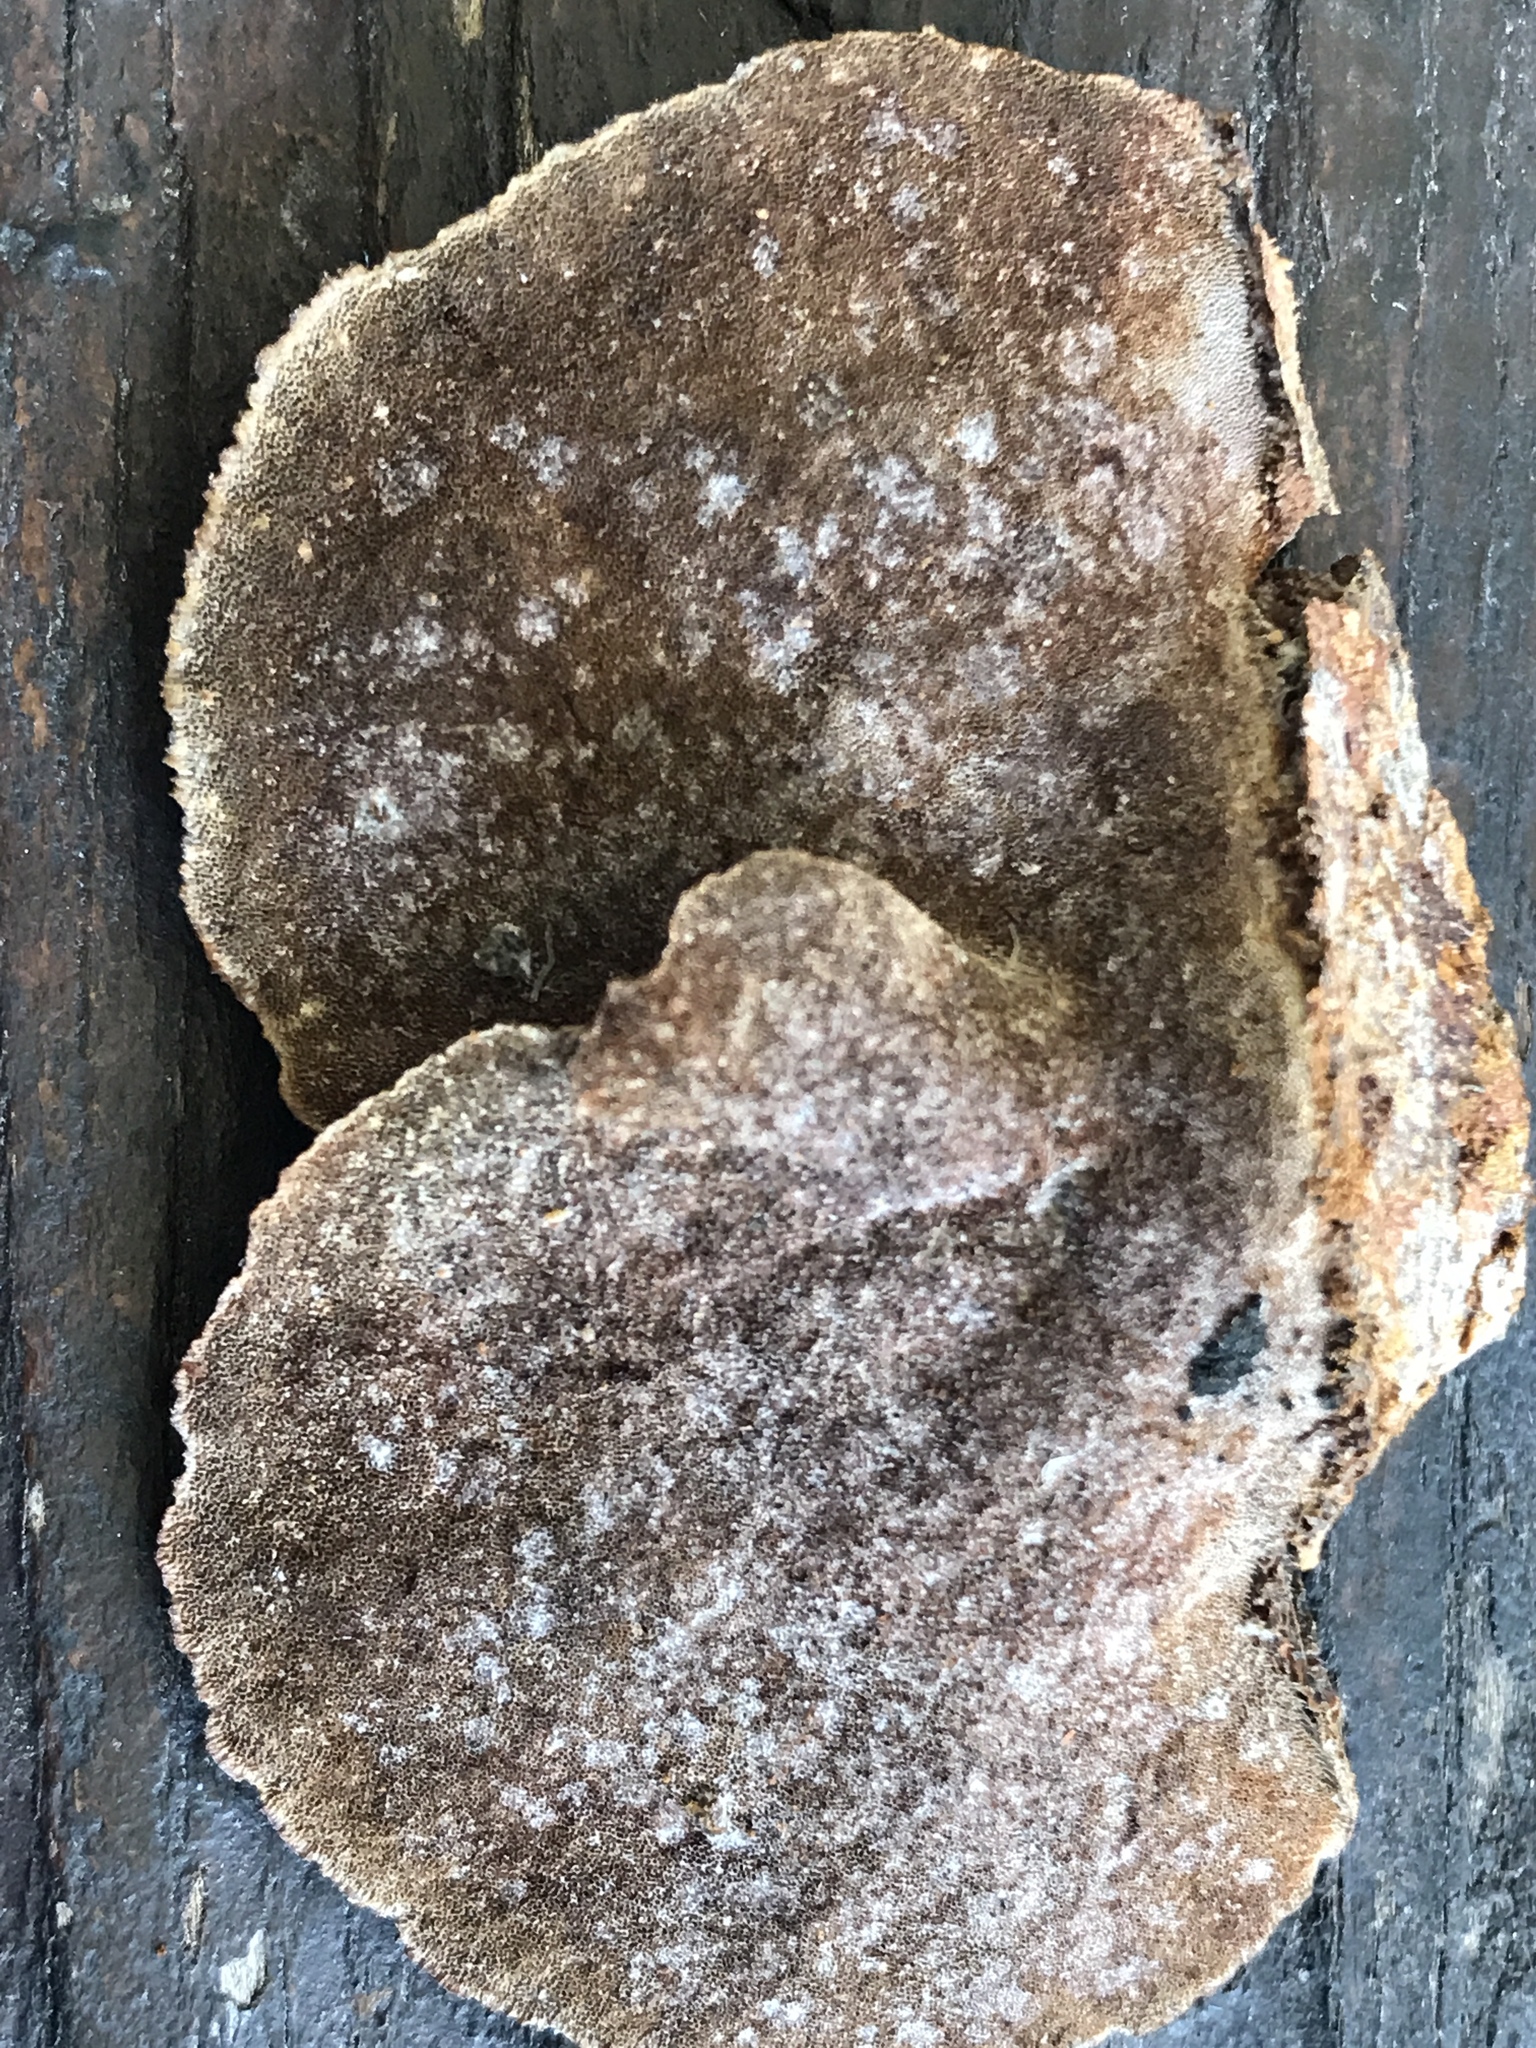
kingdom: Fungi
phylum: Basidiomycota
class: Agaricomycetes
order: Hymenochaetales
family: Hymenochaetaceae
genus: Phellinus
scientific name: Phellinus gilvus
